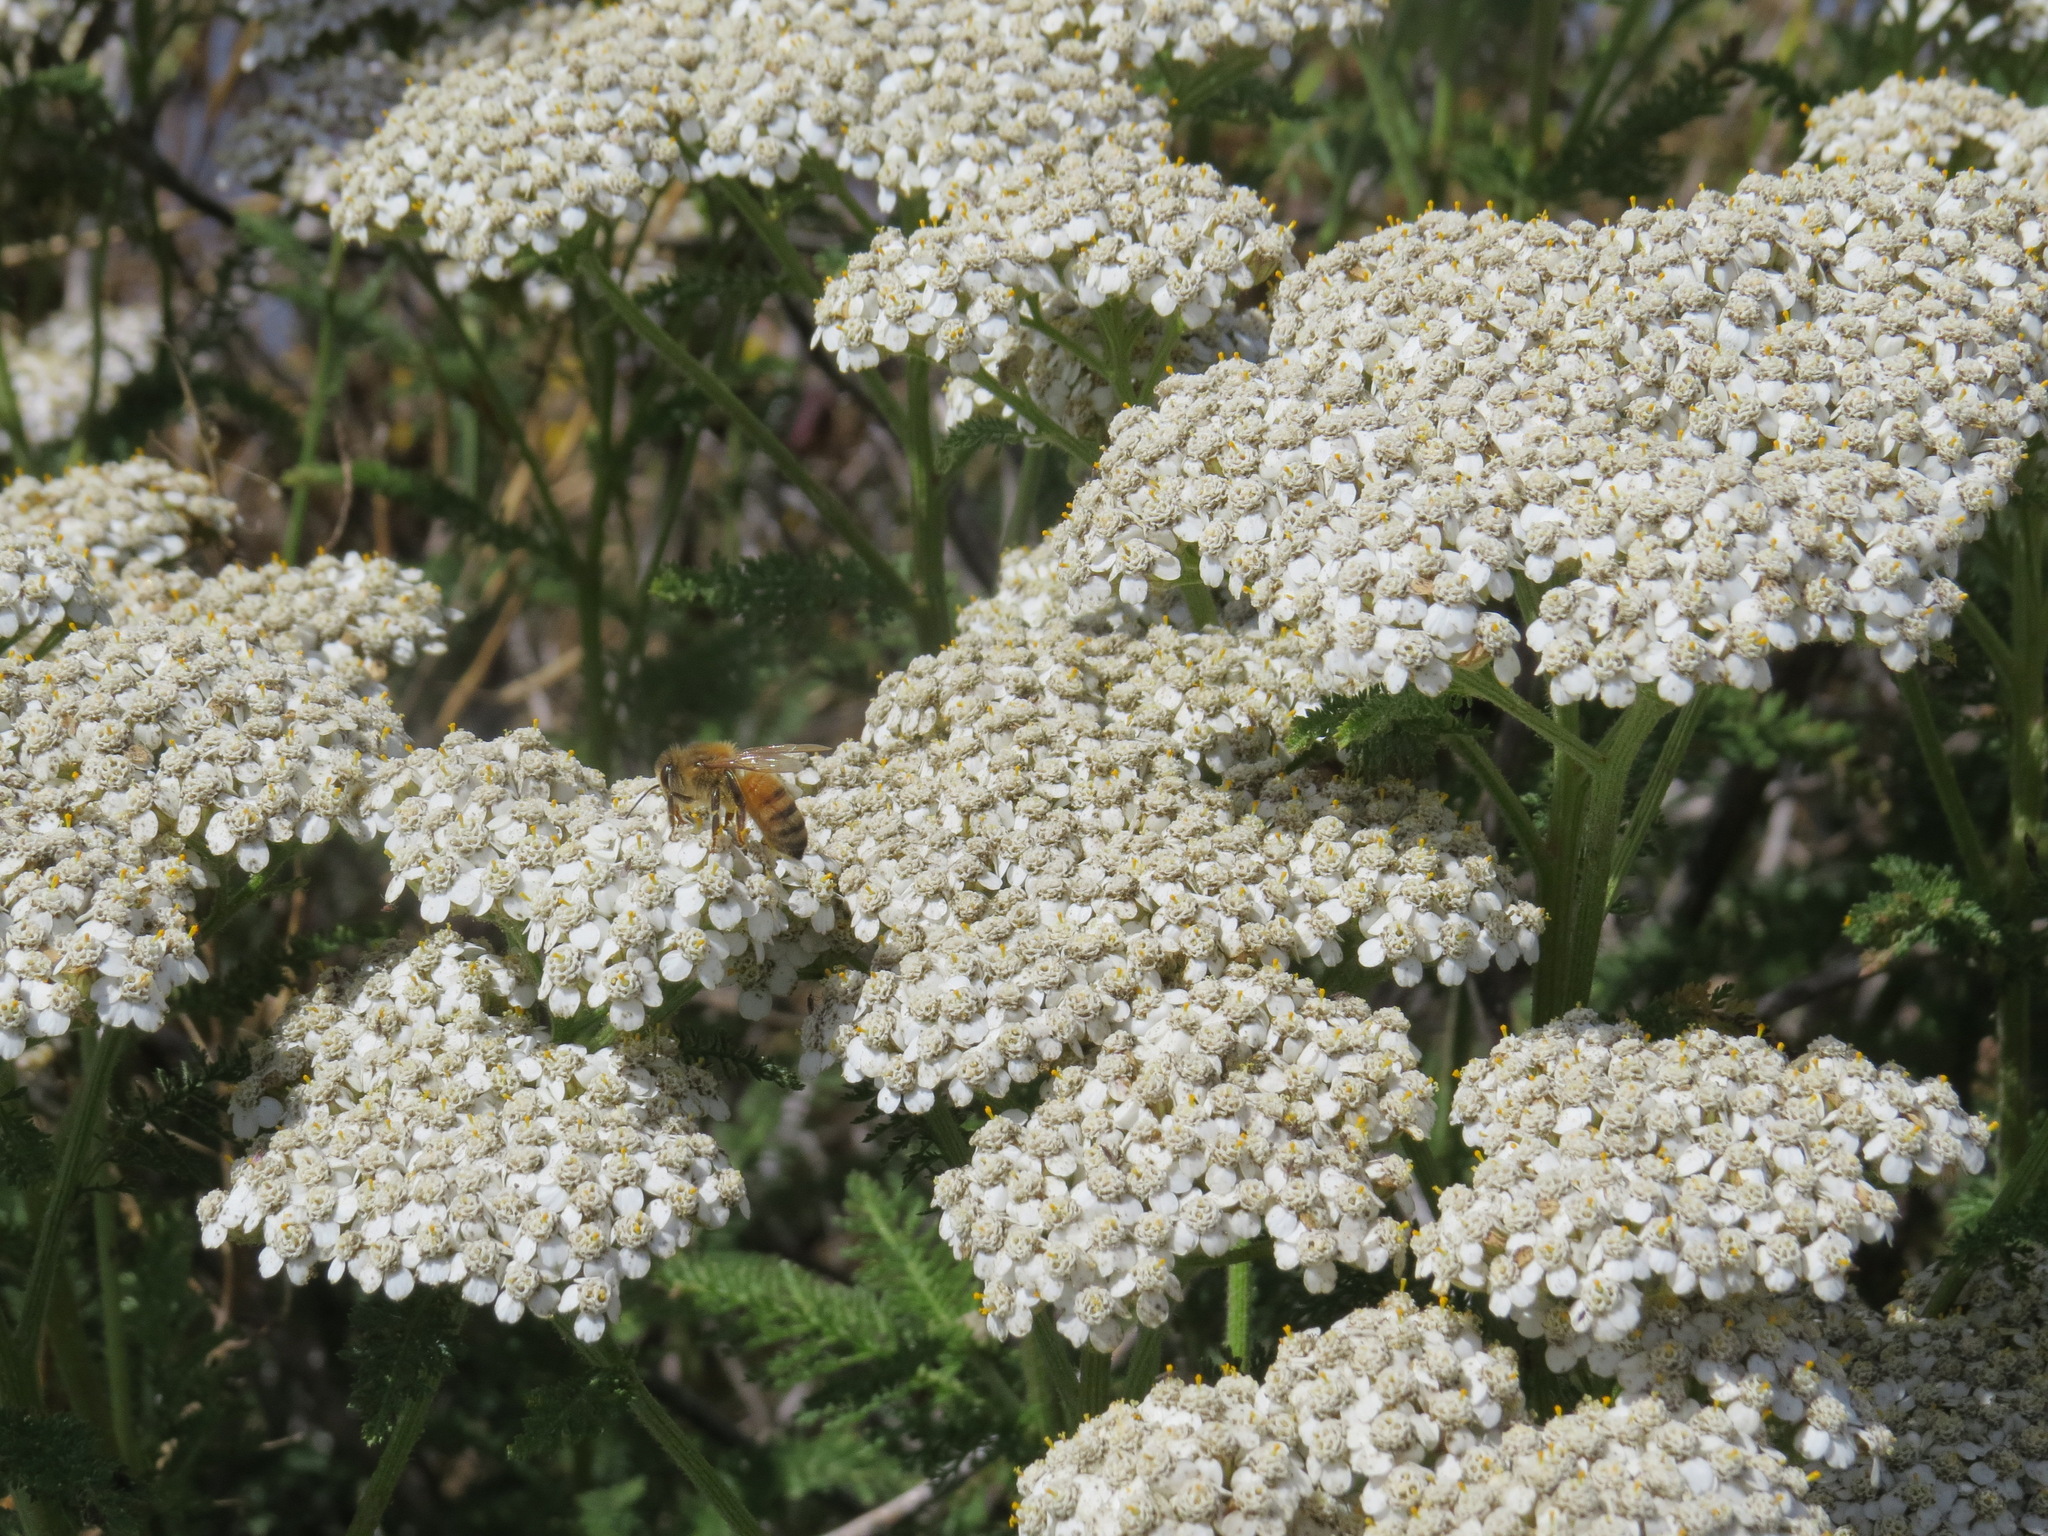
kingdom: Animalia
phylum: Arthropoda
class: Insecta
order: Hymenoptera
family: Apidae
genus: Apis
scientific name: Apis mellifera
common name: Honey bee
